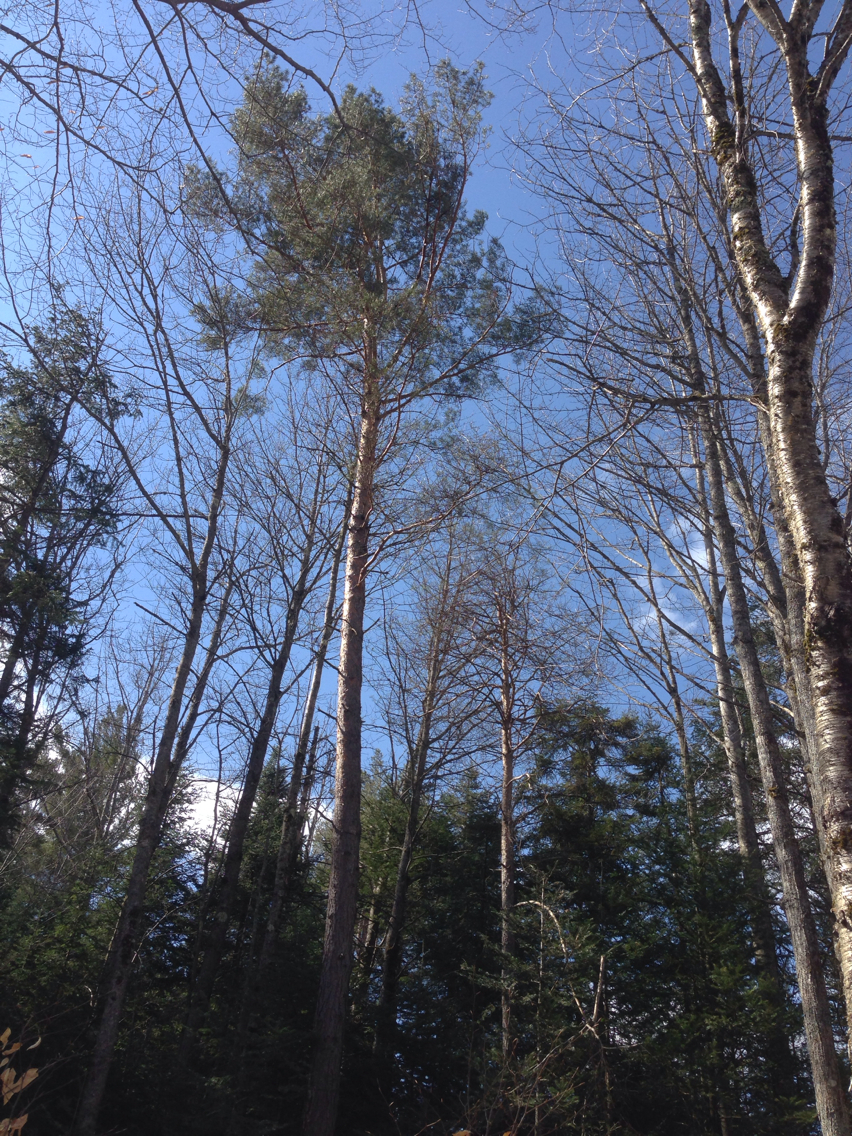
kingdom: Plantae
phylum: Tracheophyta
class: Pinopsida
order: Pinales
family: Pinaceae
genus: Pinus
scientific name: Pinus sylvestris
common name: Scots pine
